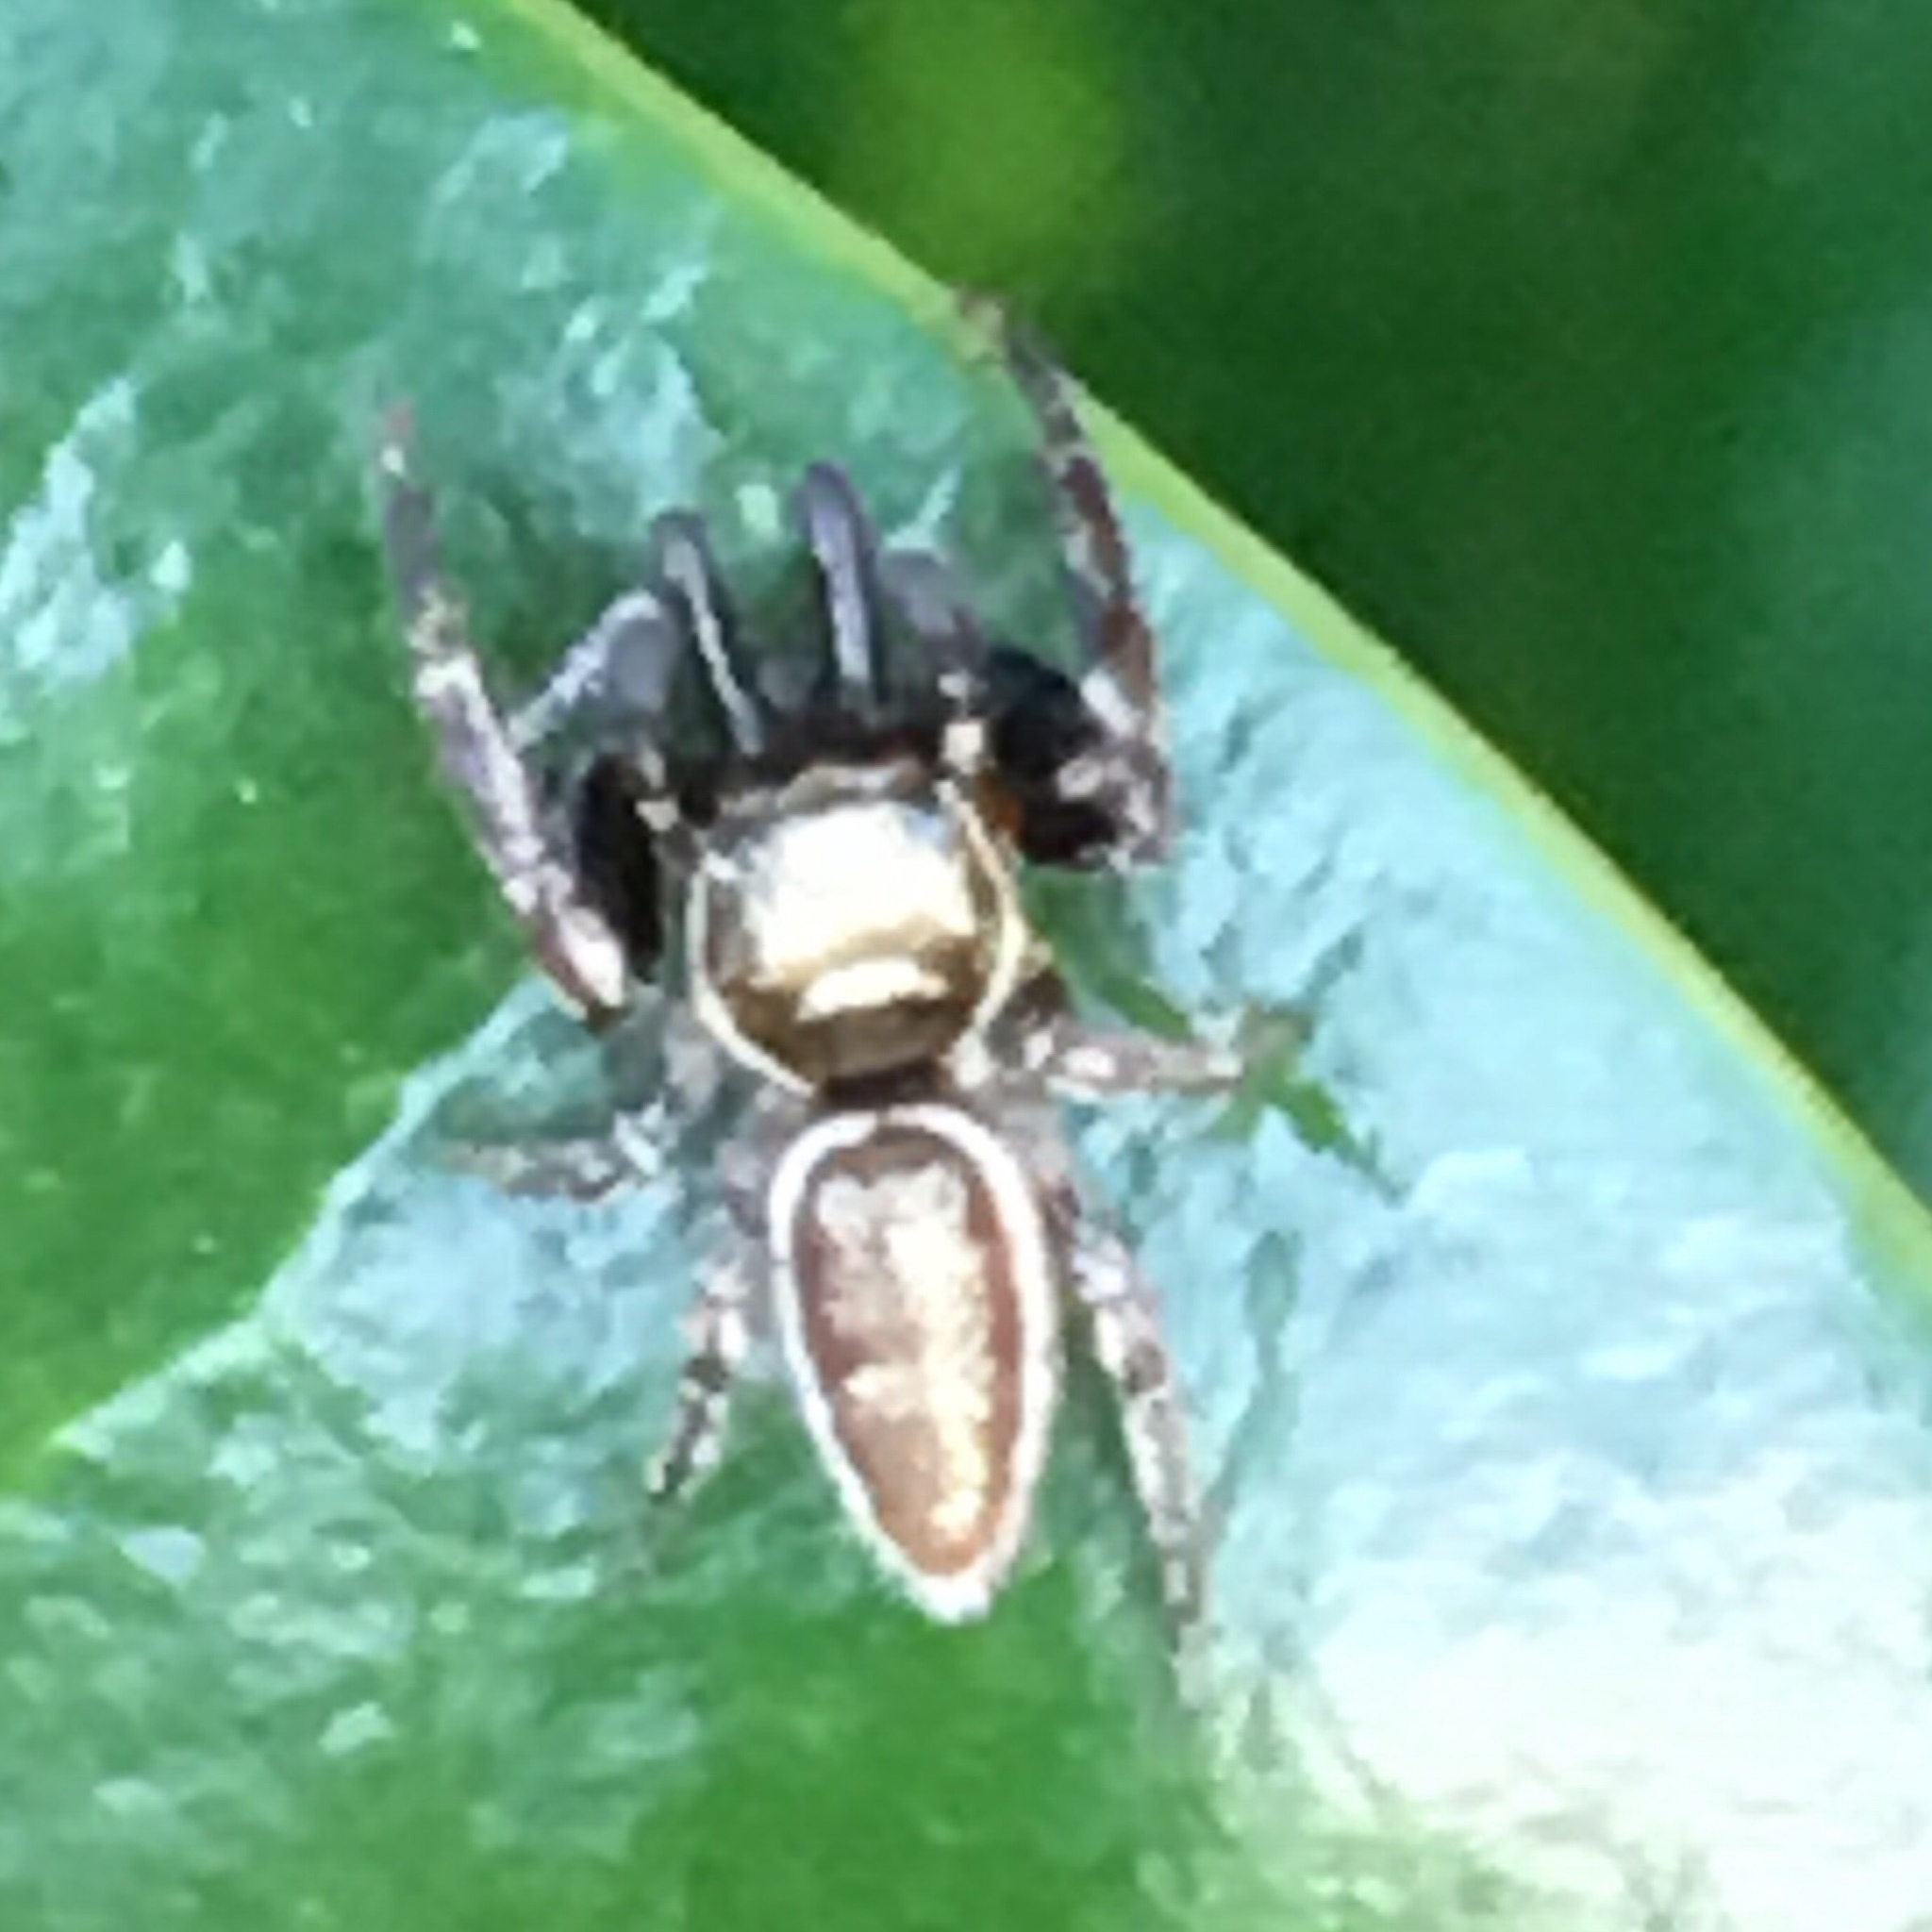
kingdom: Animalia
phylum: Arthropoda
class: Arachnida
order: Araneae
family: Salticidae
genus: Bagheera
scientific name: Bagheera prosper
